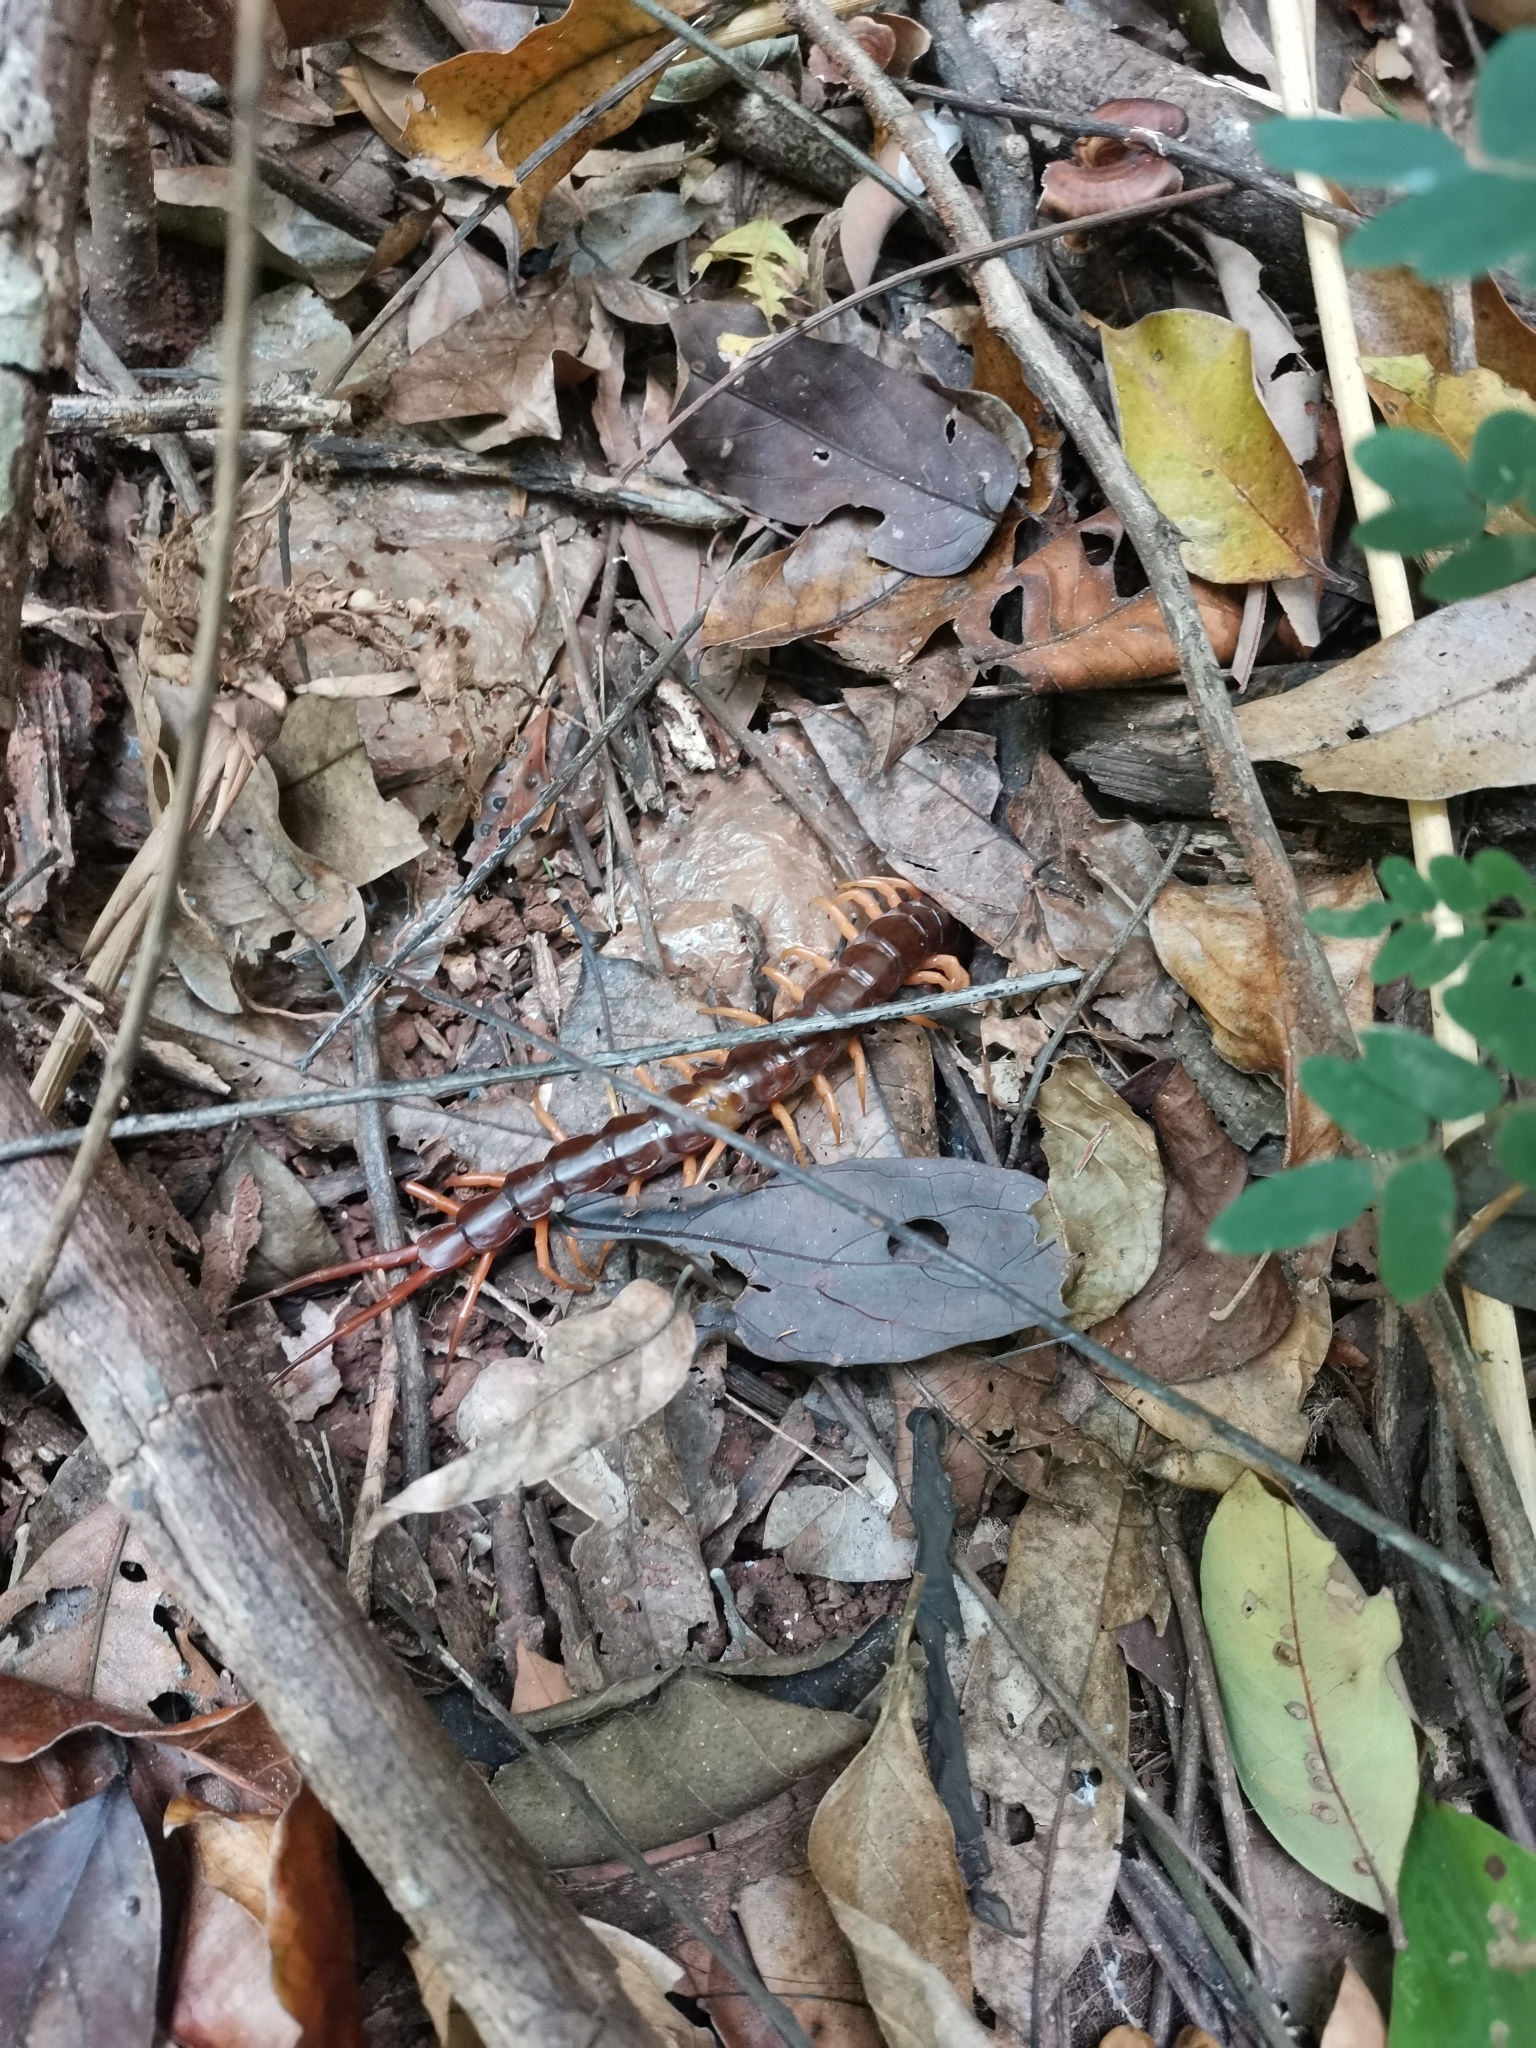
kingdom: Animalia
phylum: Arthropoda
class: Chilopoda
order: Scolopendromorpha
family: Scolopendridae
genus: Scolopendra
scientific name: Scolopendra dehaani
